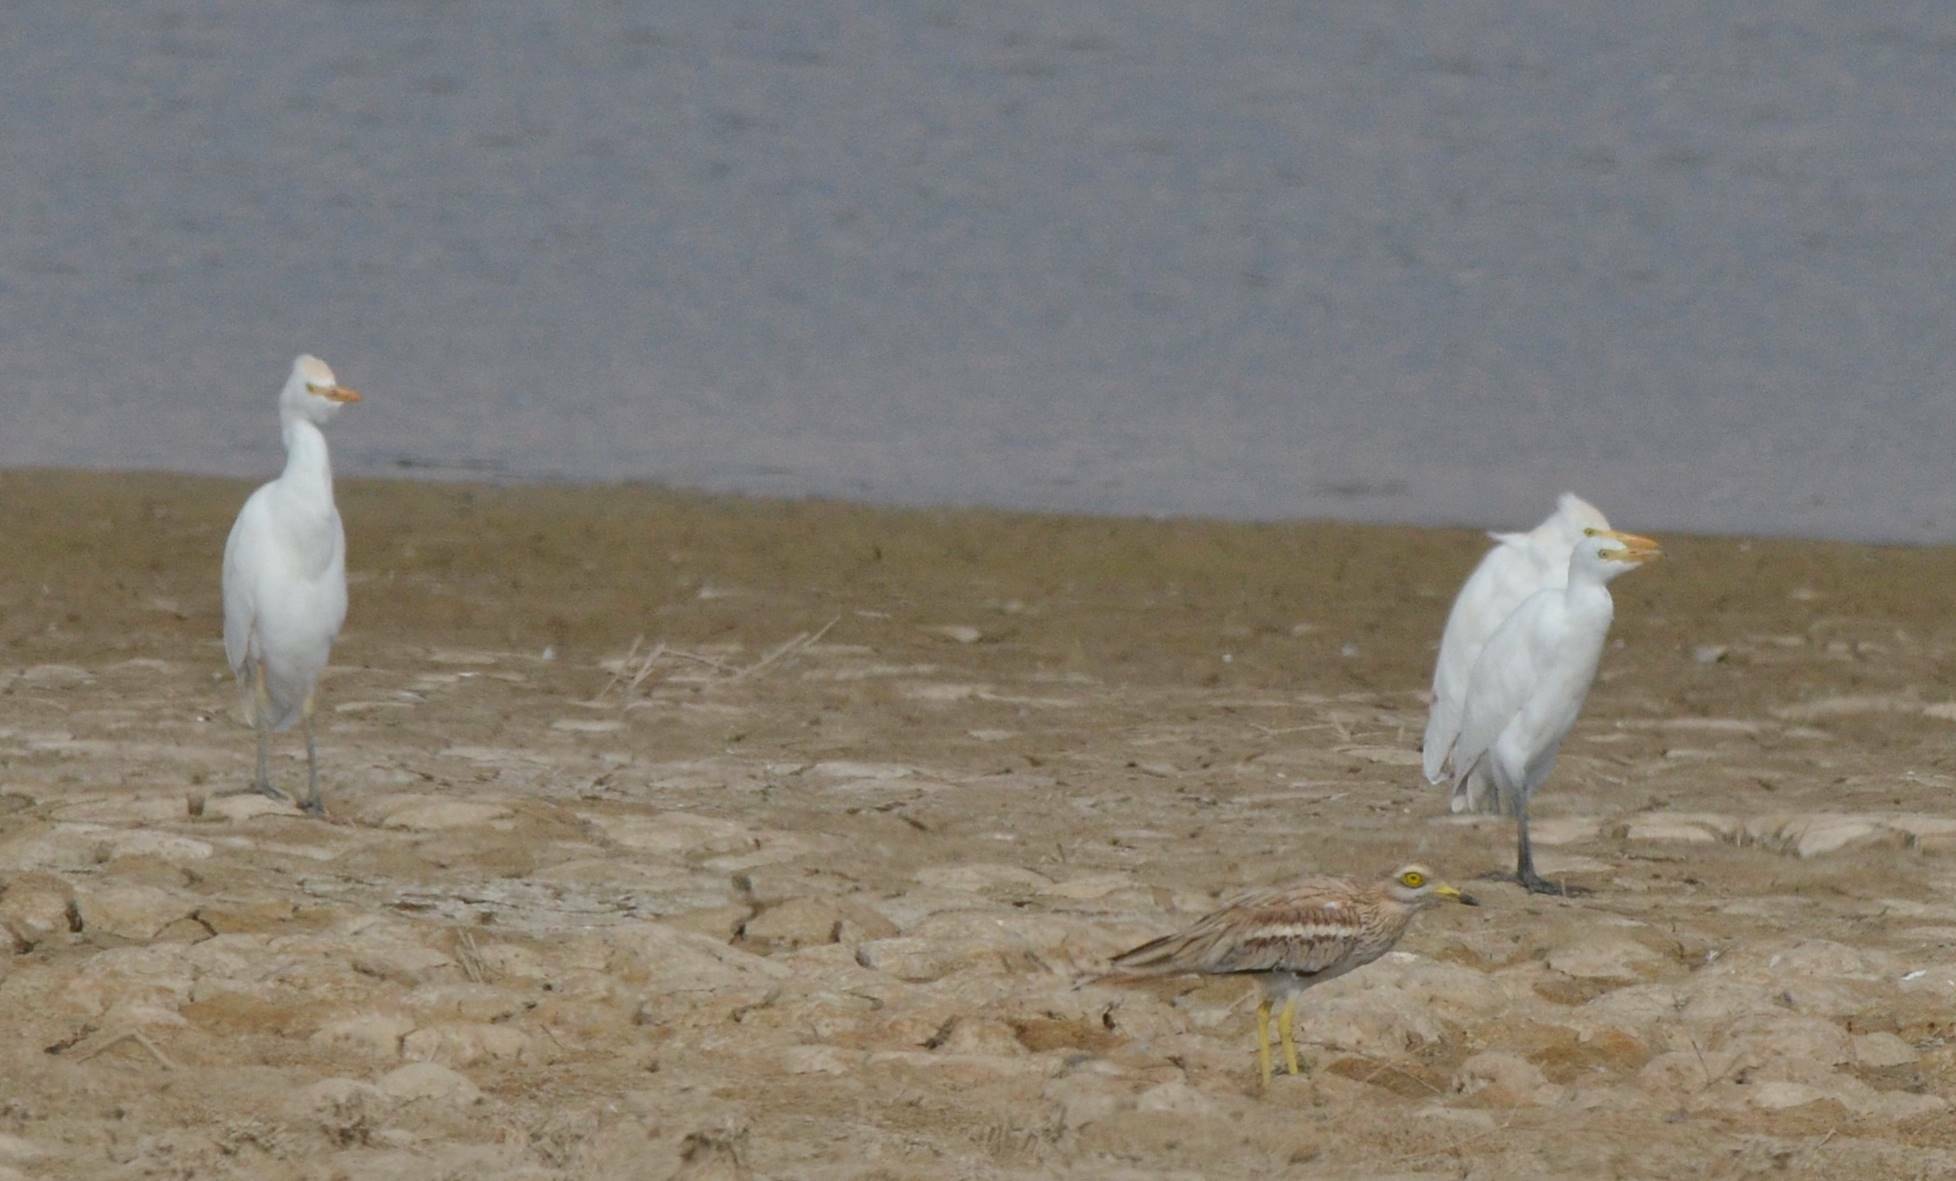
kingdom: Animalia
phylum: Chordata
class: Aves
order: Pelecaniformes
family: Ardeidae
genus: Bubulcus
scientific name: Bubulcus ibis
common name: Cattle egret
